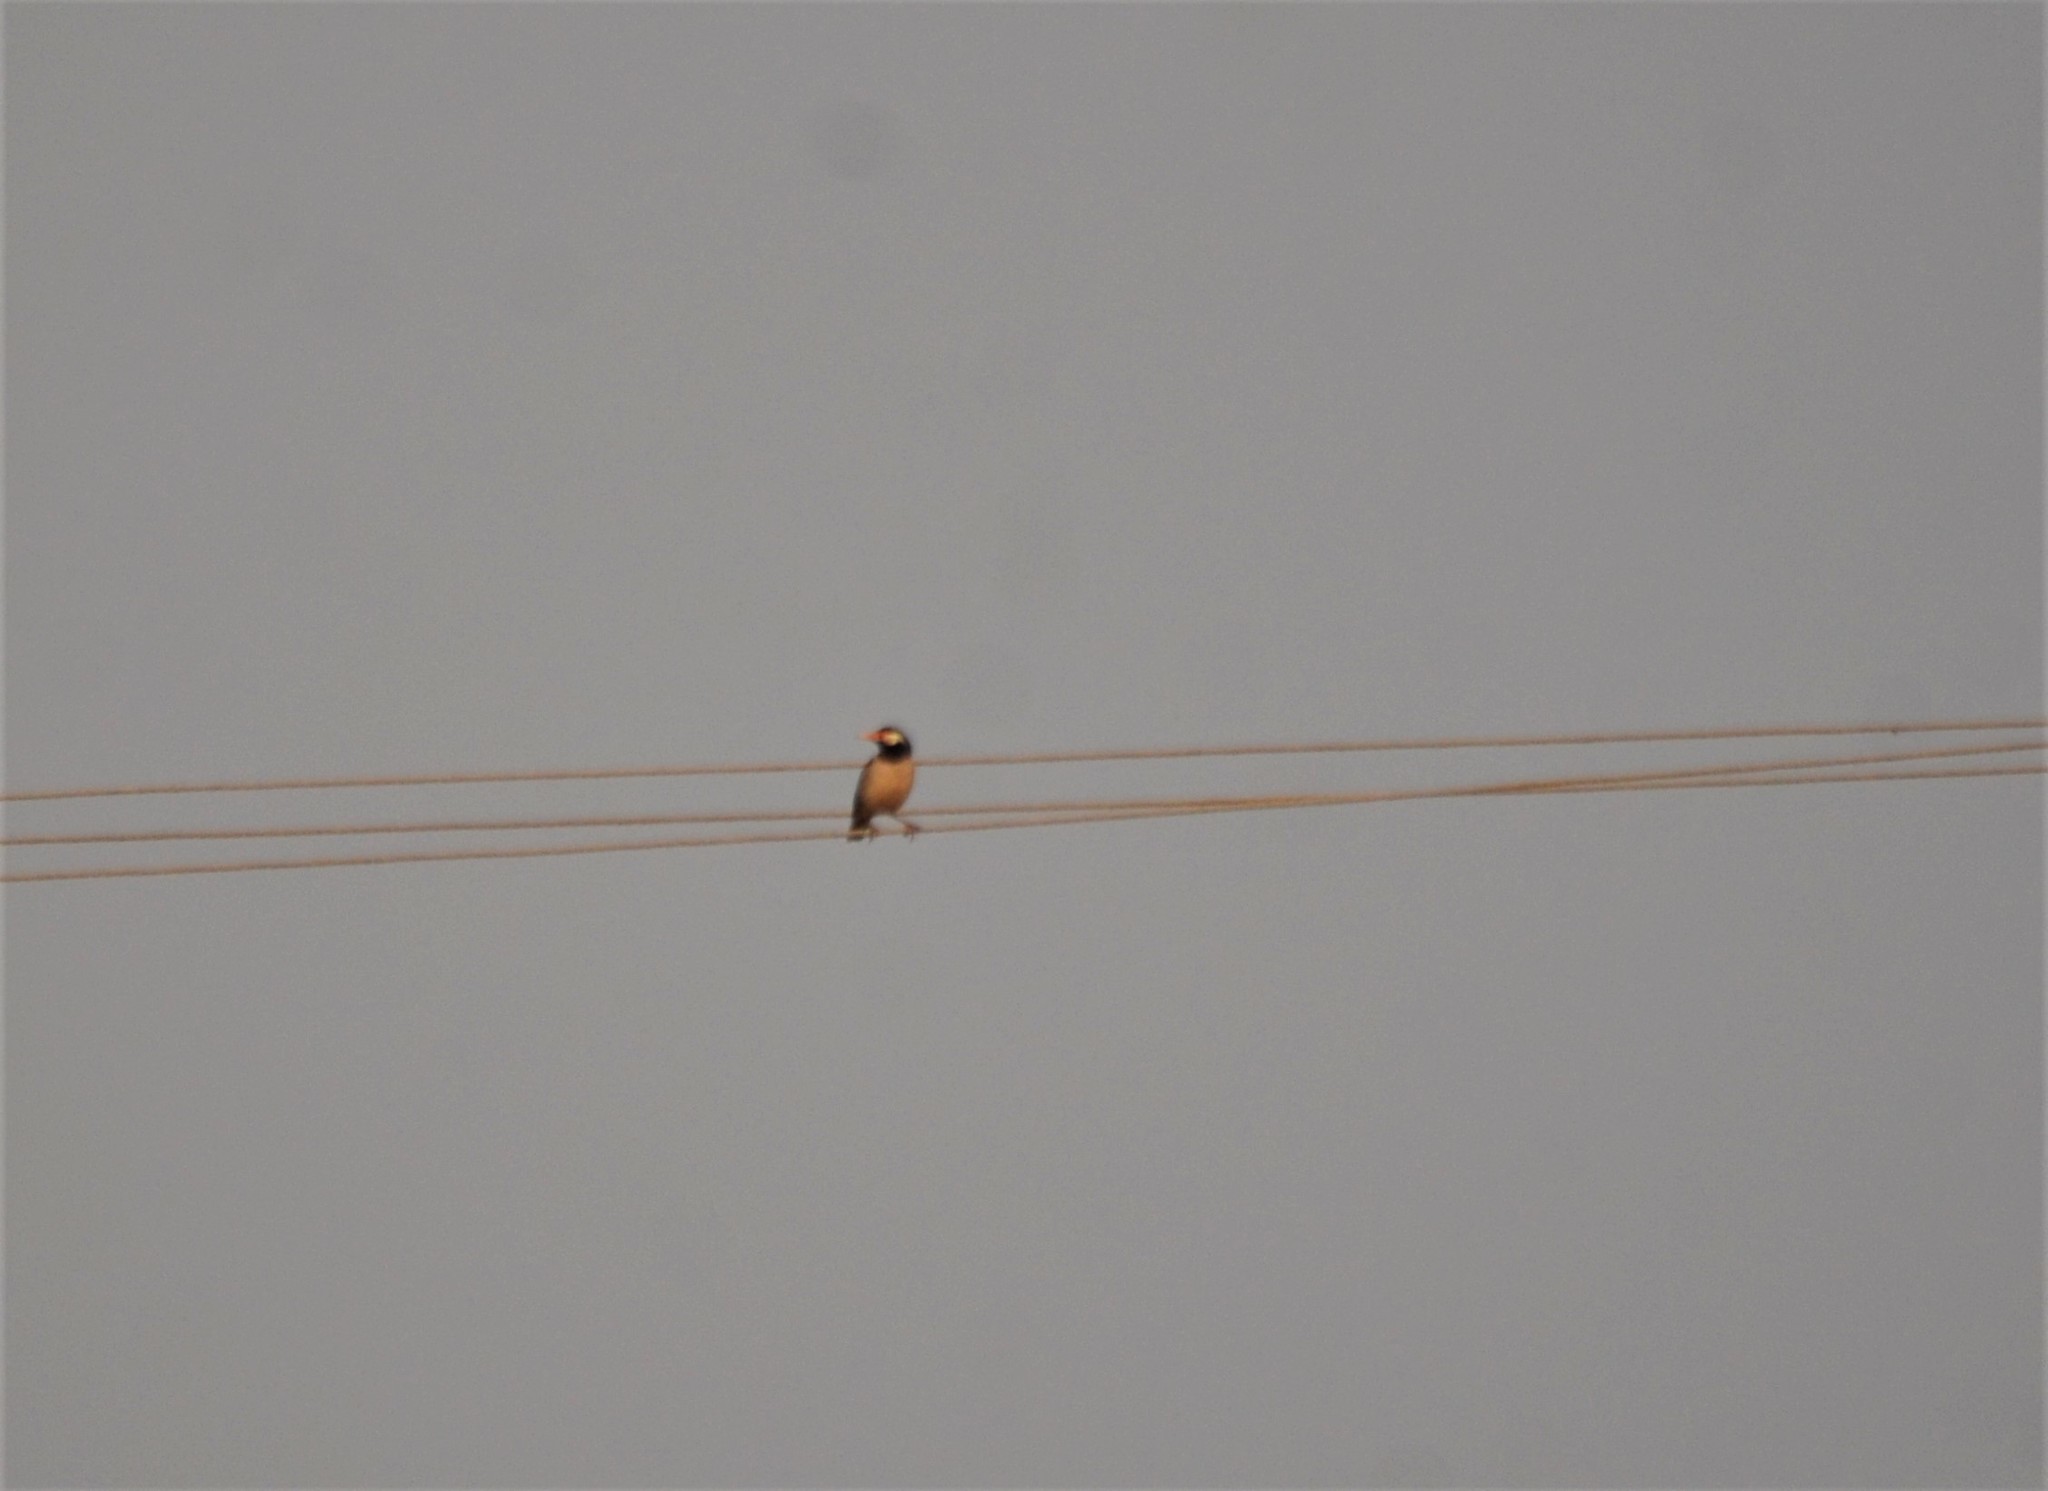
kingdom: Animalia
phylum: Chordata
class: Aves
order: Passeriformes
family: Sturnidae
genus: Gracupica
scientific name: Gracupica contra
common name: Pied myna
